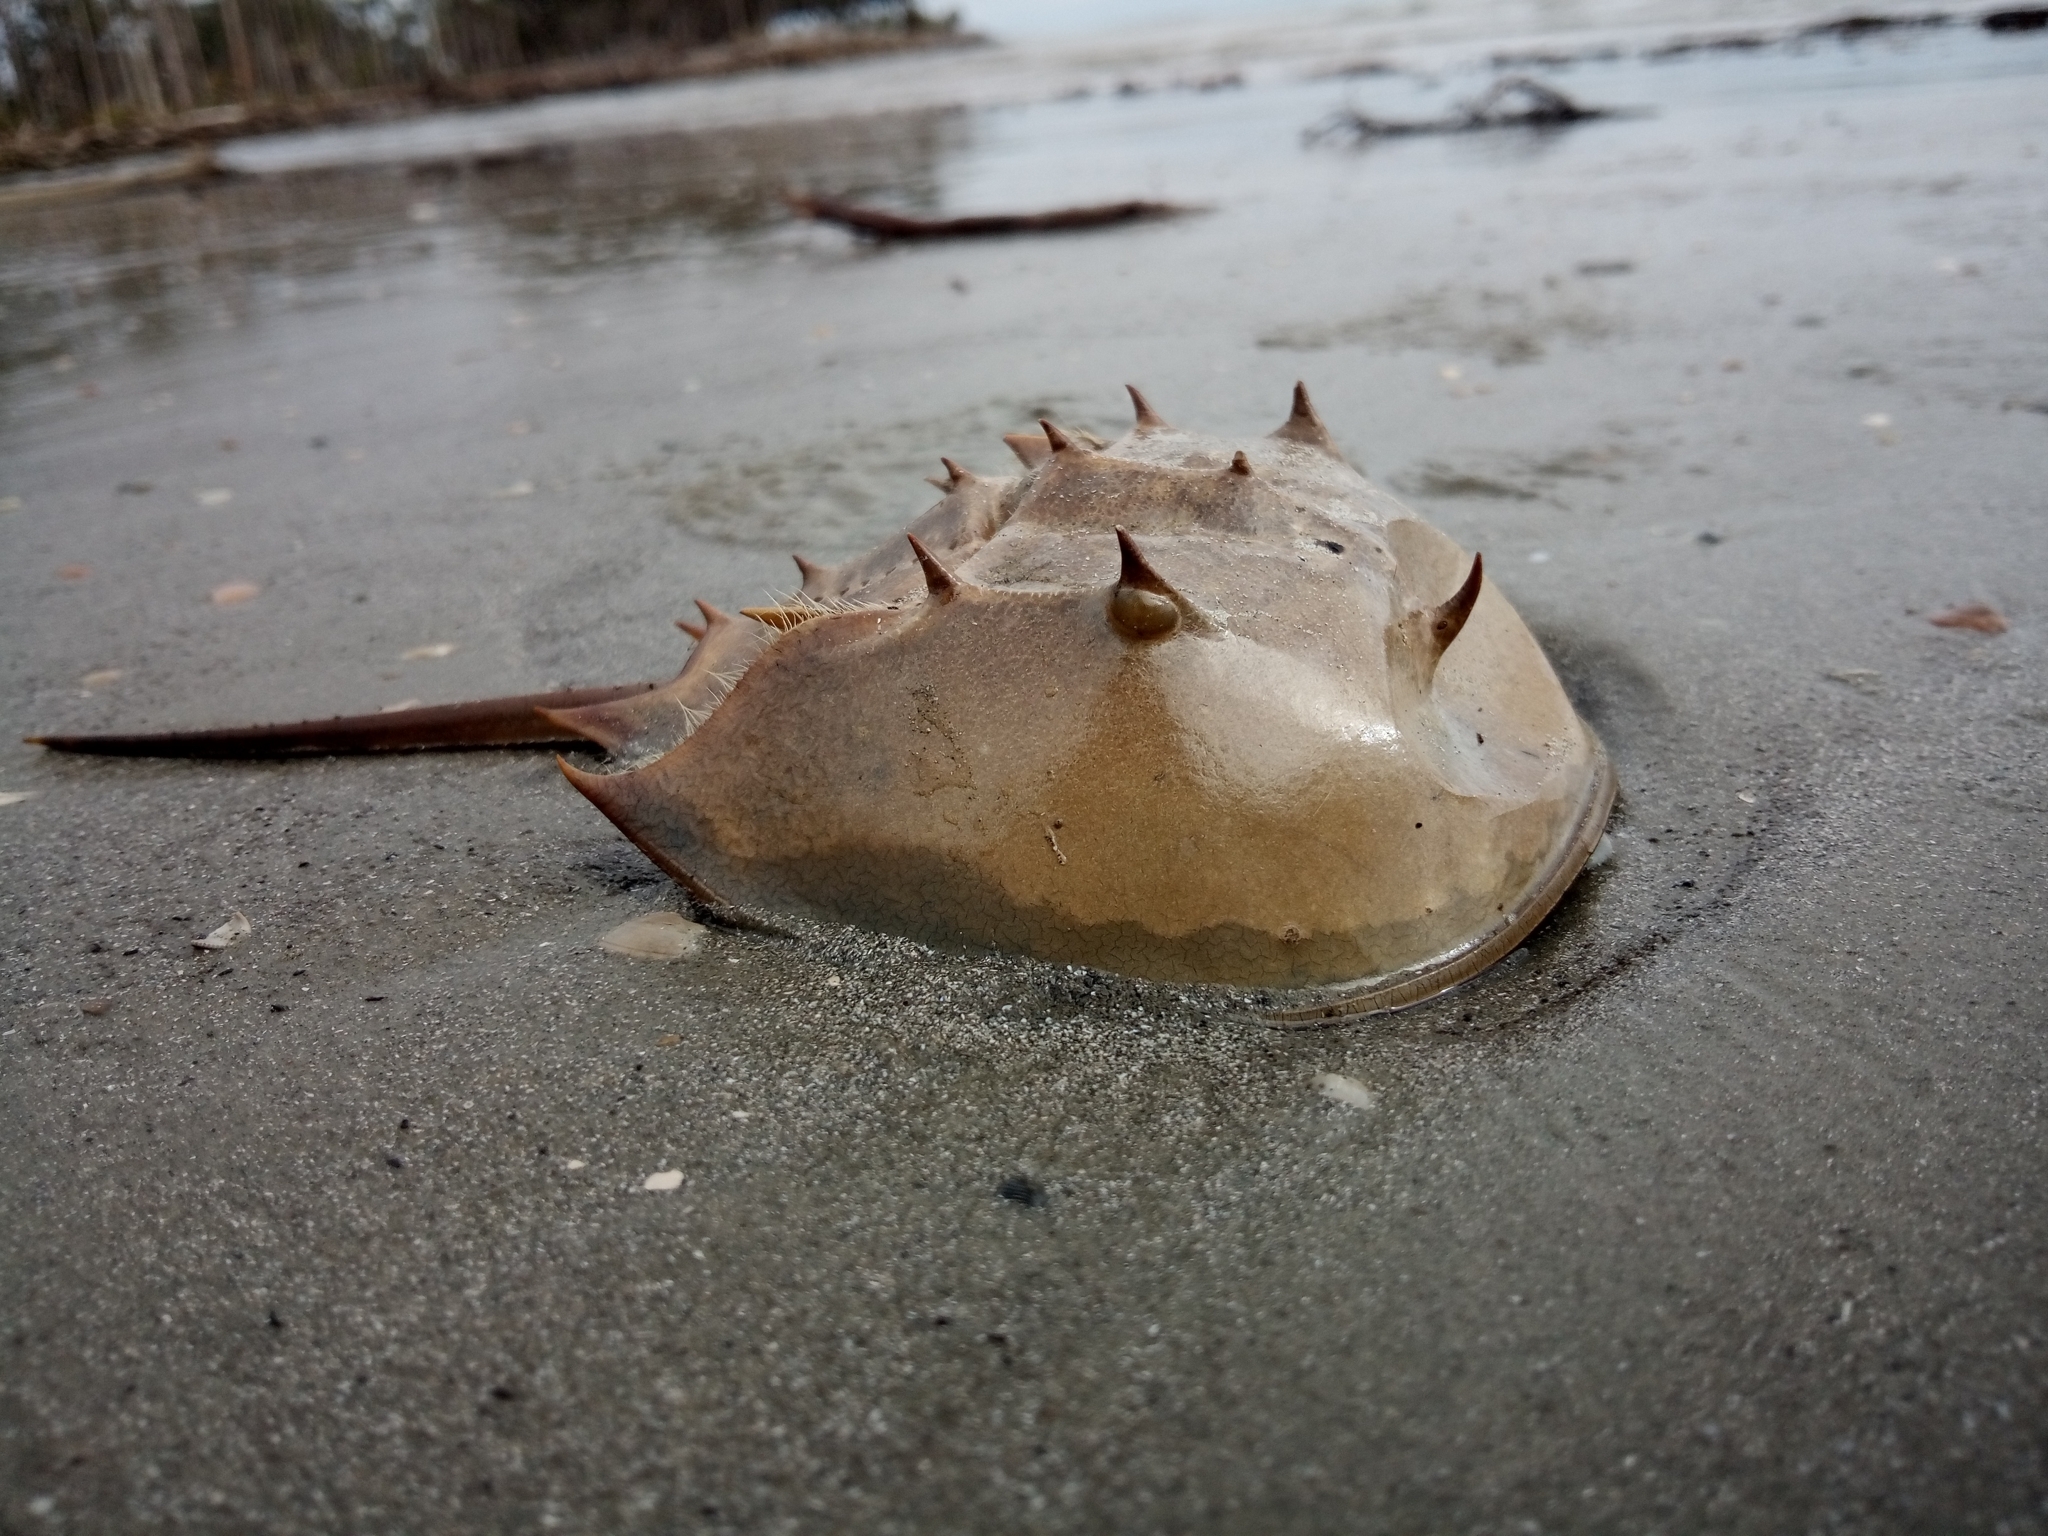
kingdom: Animalia
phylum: Arthropoda
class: Merostomata
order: Xiphosurida
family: Limulidae
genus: Limulus
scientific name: Limulus polyphemus
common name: Horseshoe crab
